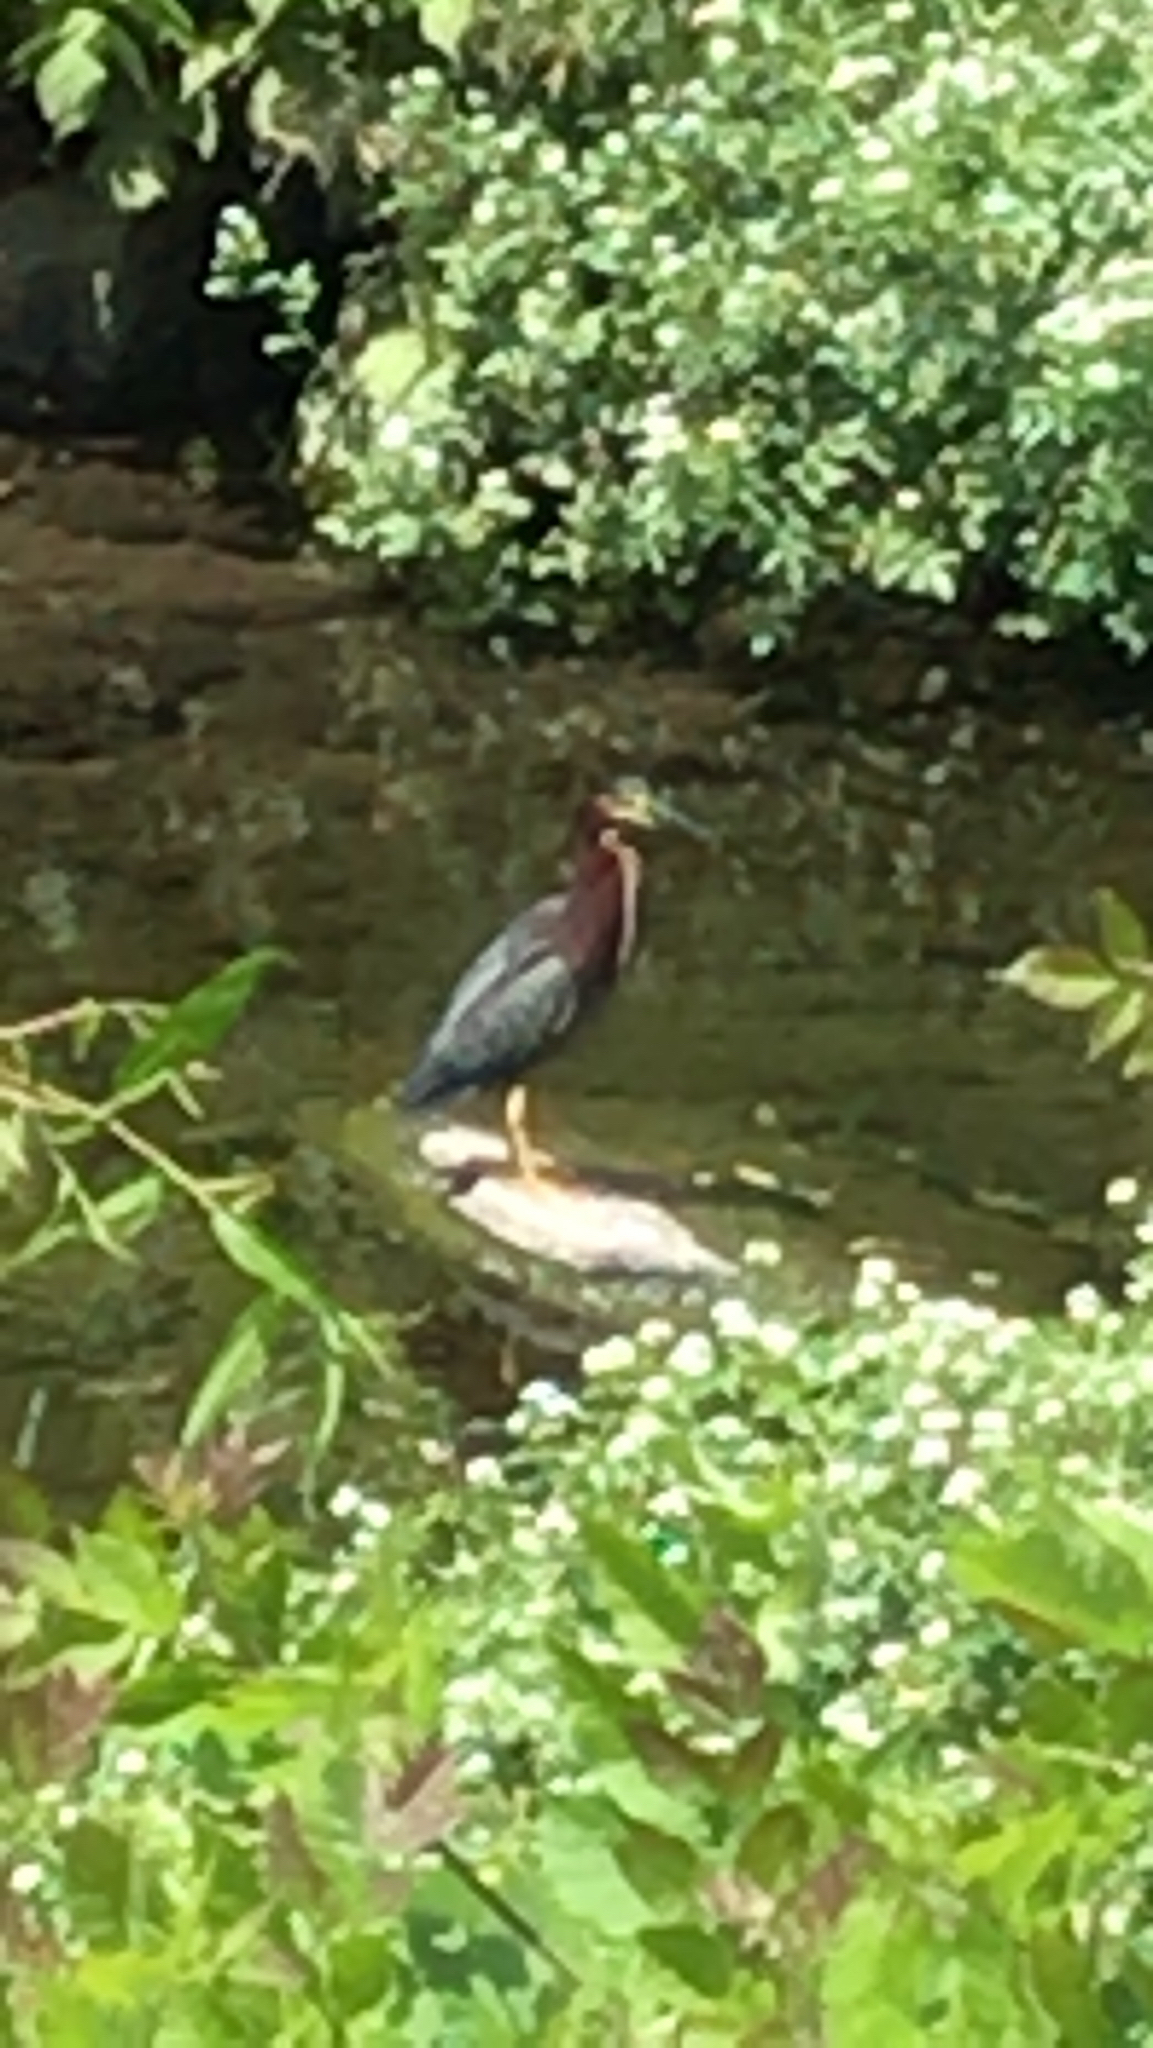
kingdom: Animalia
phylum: Chordata
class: Aves
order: Pelecaniformes
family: Ardeidae
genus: Butorides
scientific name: Butorides virescens
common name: Green heron
